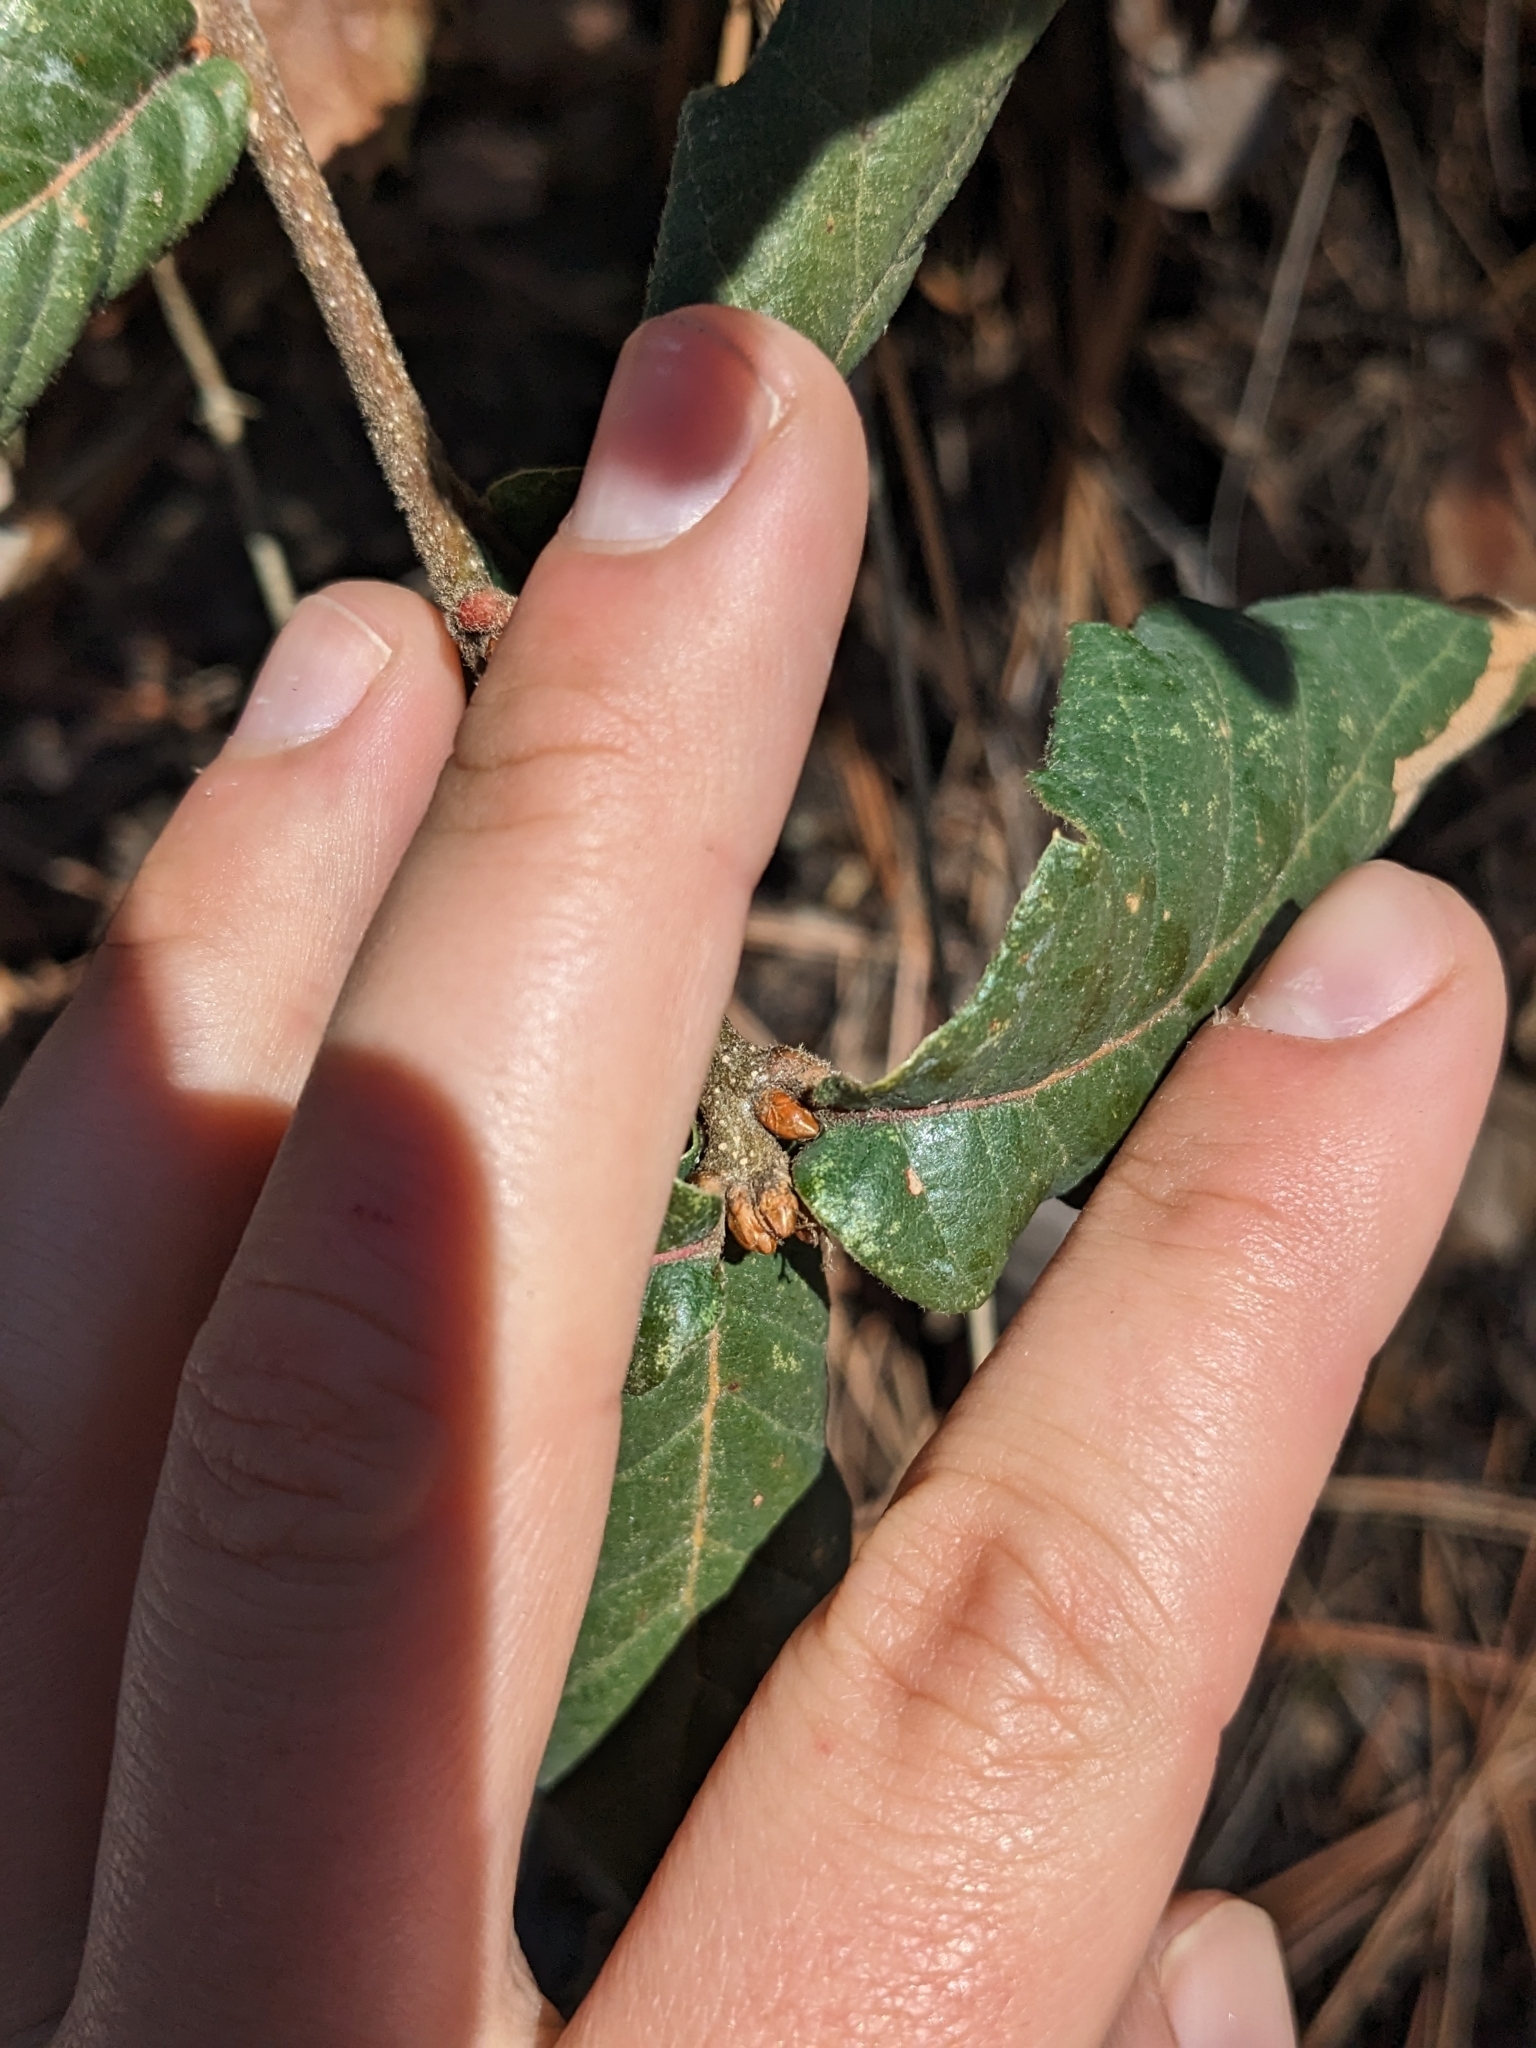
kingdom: Plantae
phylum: Tracheophyta
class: Magnoliopsida
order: Fagales
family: Fagaceae
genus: Quercus
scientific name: Quercus rugosa
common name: Netleaf oak
